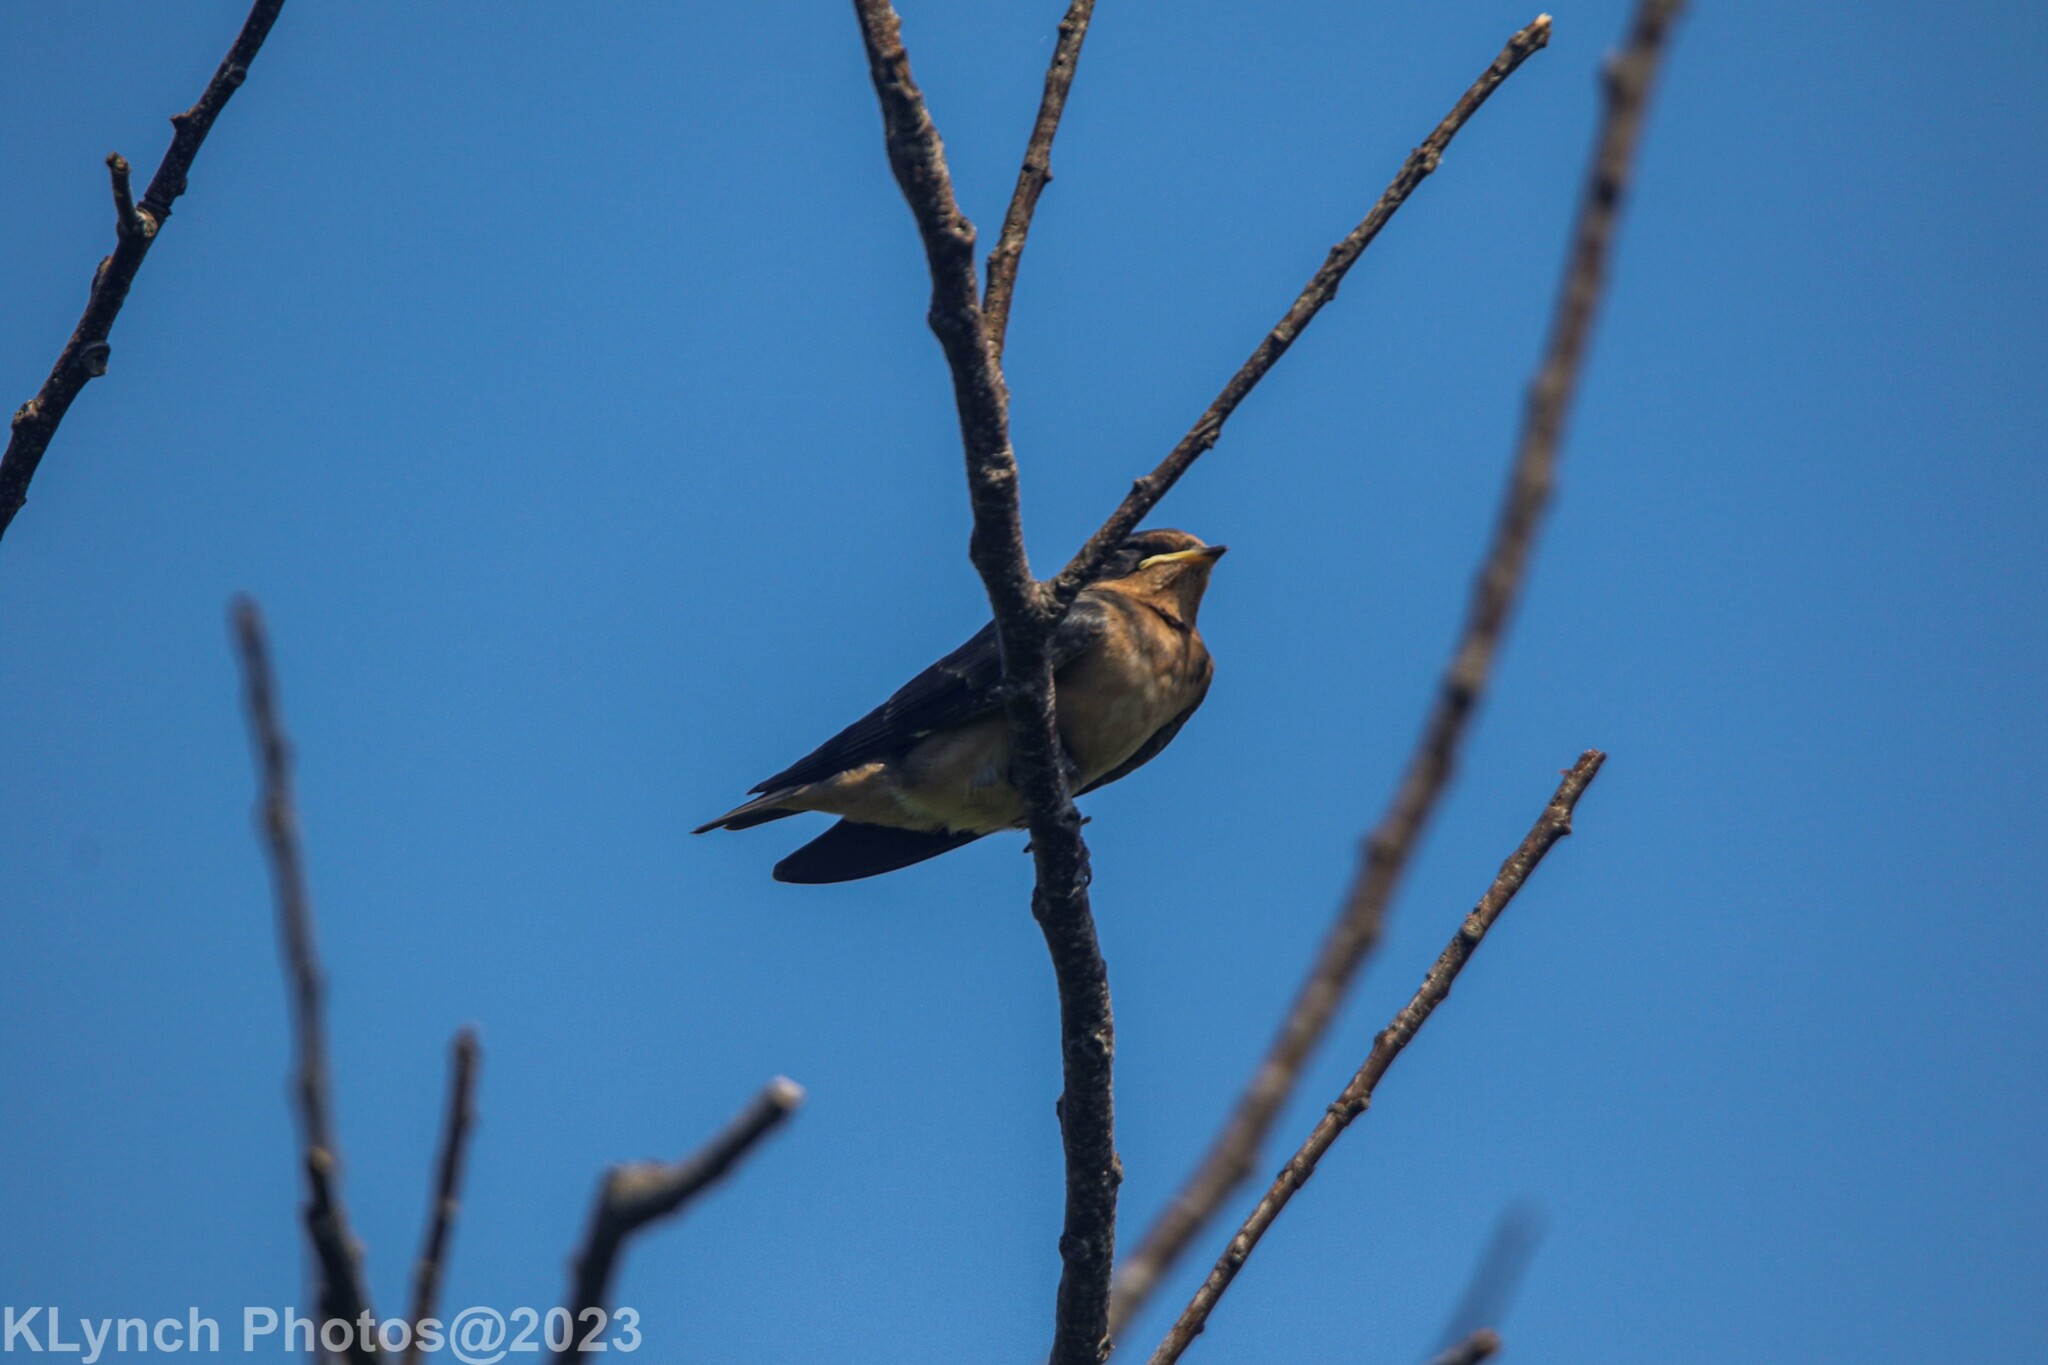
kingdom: Animalia
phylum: Chordata
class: Aves
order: Passeriformes
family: Hirundinidae
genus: Hirundo
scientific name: Hirundo rustica
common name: Barn swallow
